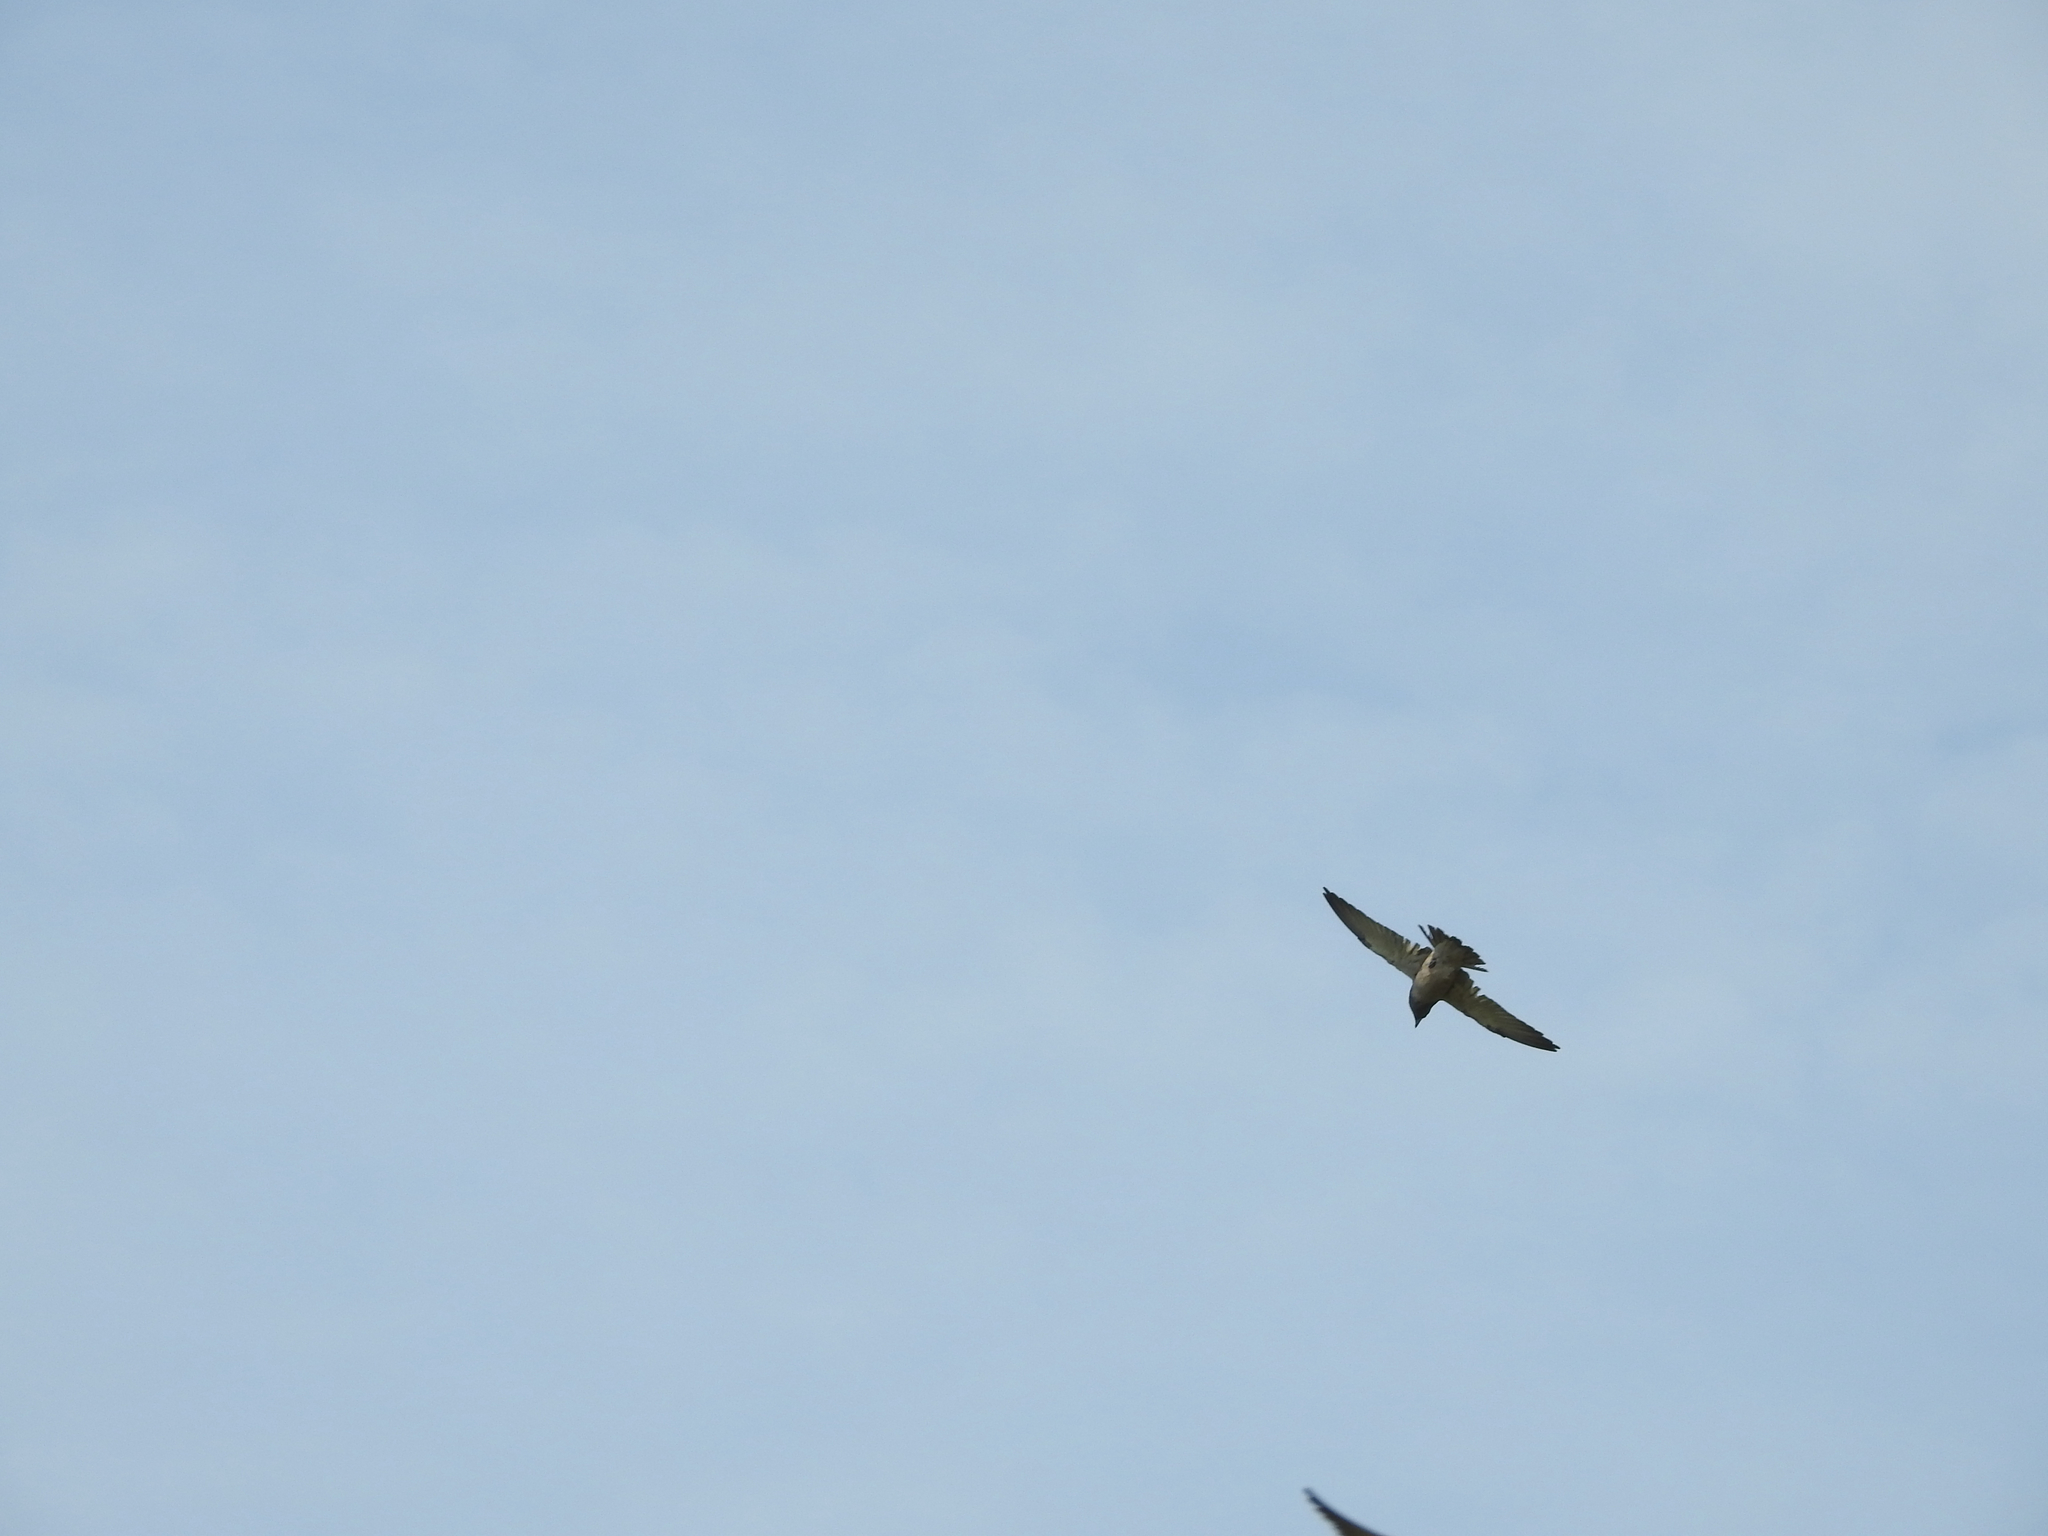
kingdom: Animalia
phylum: Chordata
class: Aves
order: Passeriformes
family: Artamidae
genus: Artamus
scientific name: Artamus fuscus
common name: Ashy woodswallow
